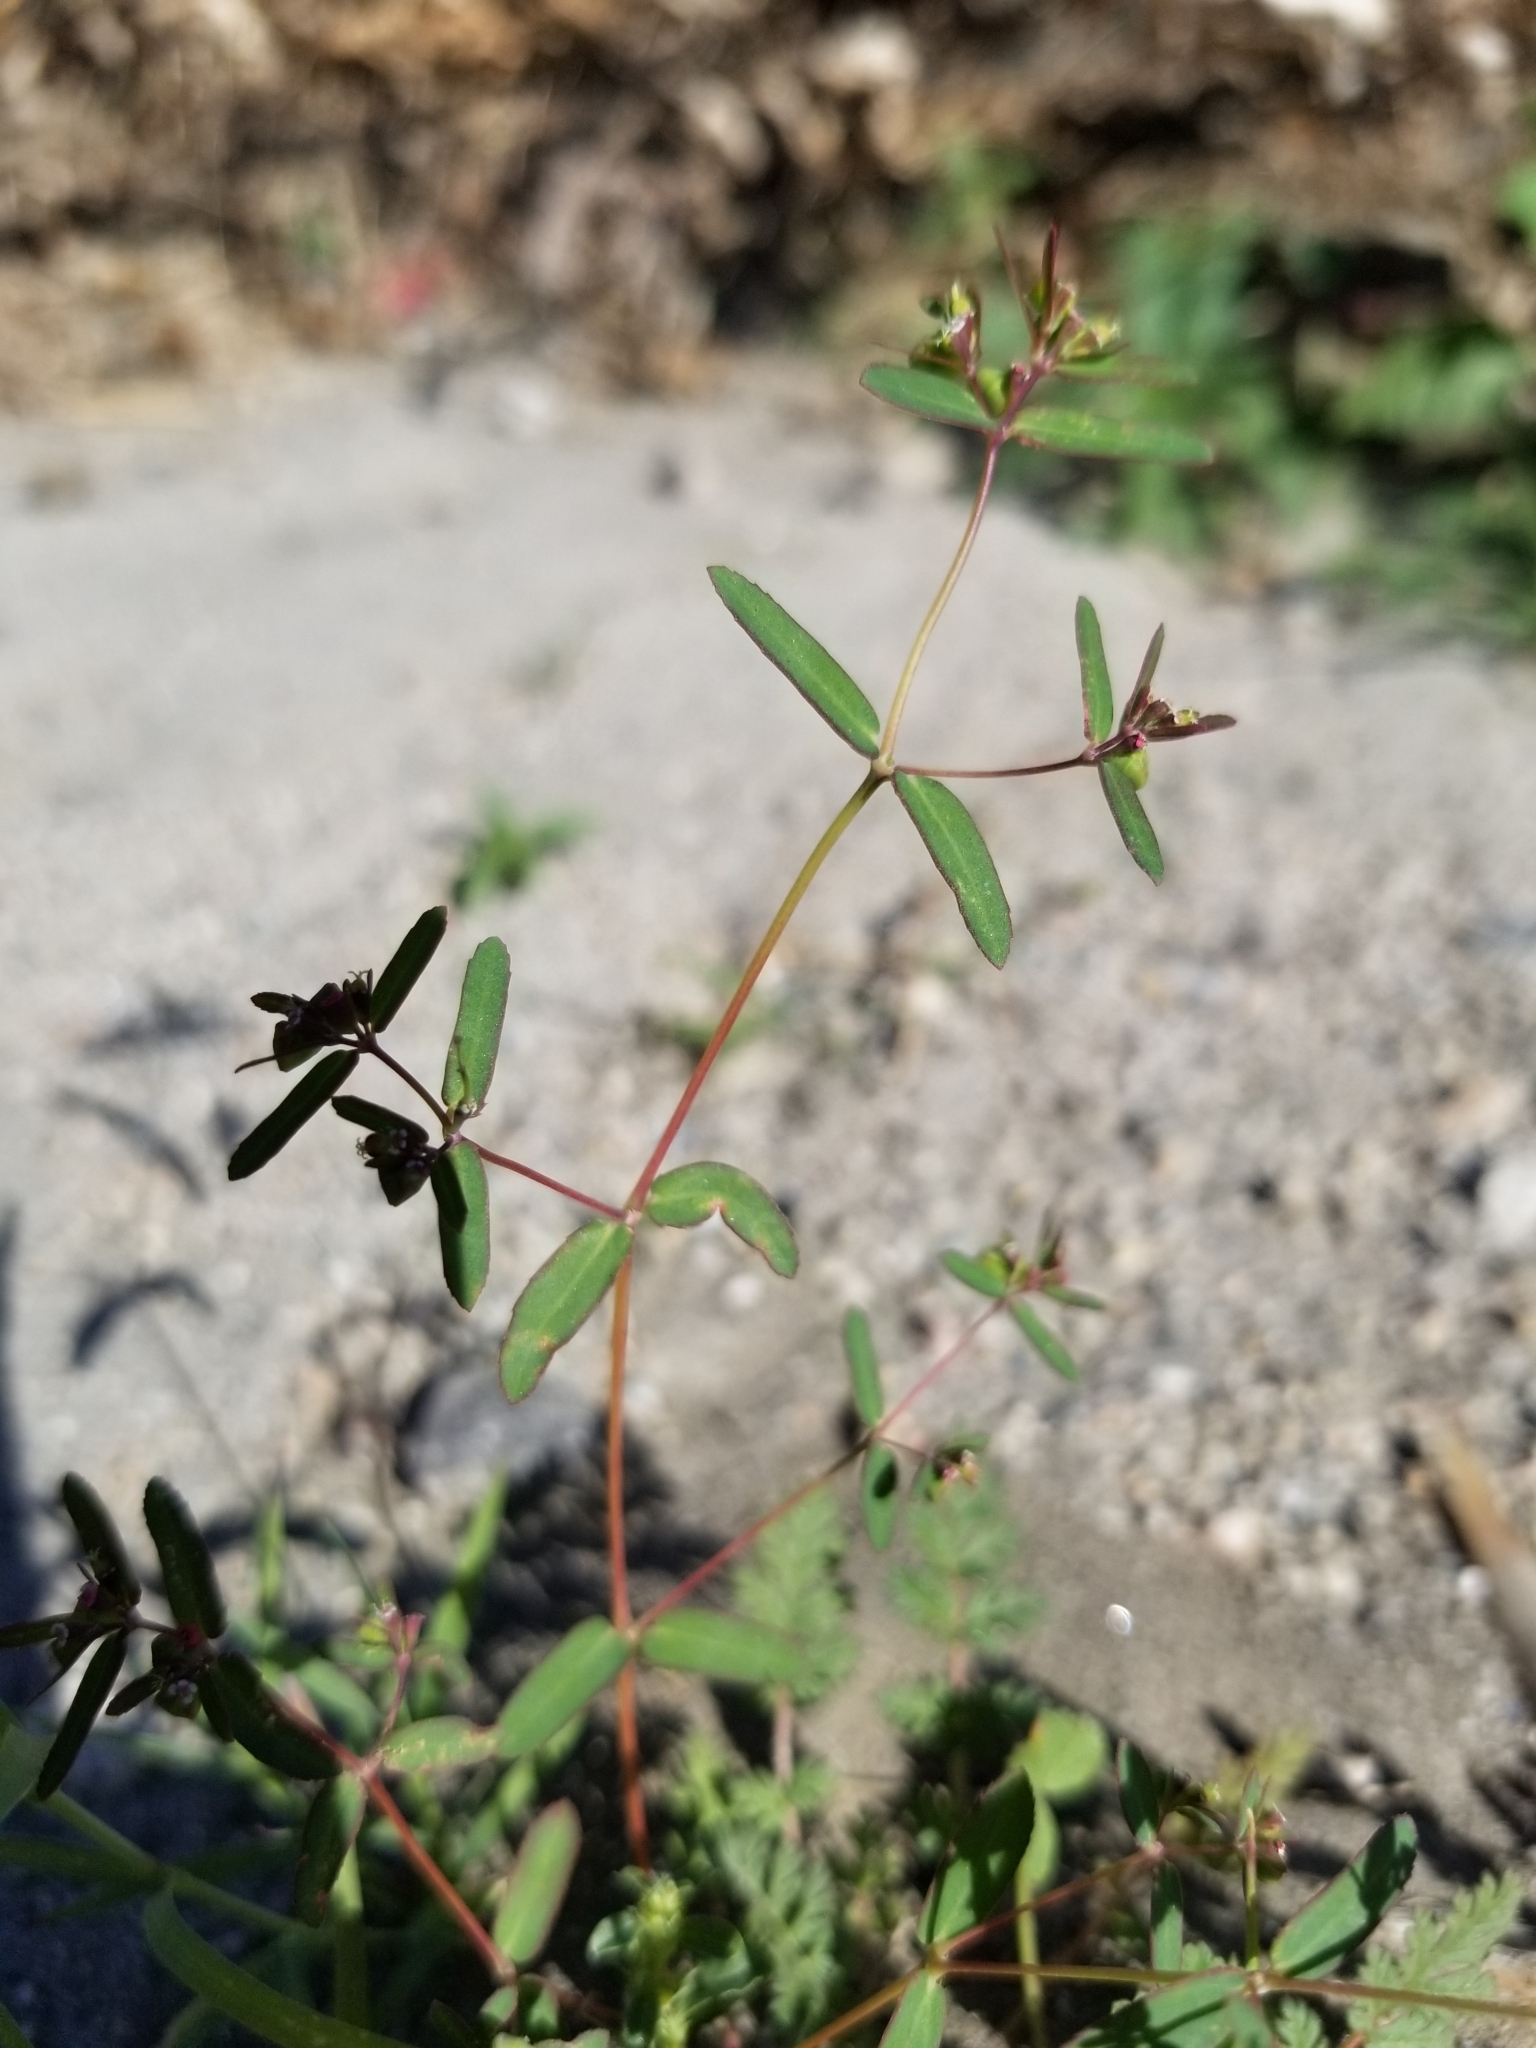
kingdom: Plantae
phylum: Tracheophyta
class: Magnoliopsida
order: Malpighiales
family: Euphorbiaceae
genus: Euphorbia
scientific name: Euphorbia hyssopifolia
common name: Hyssopleaf sandmat
